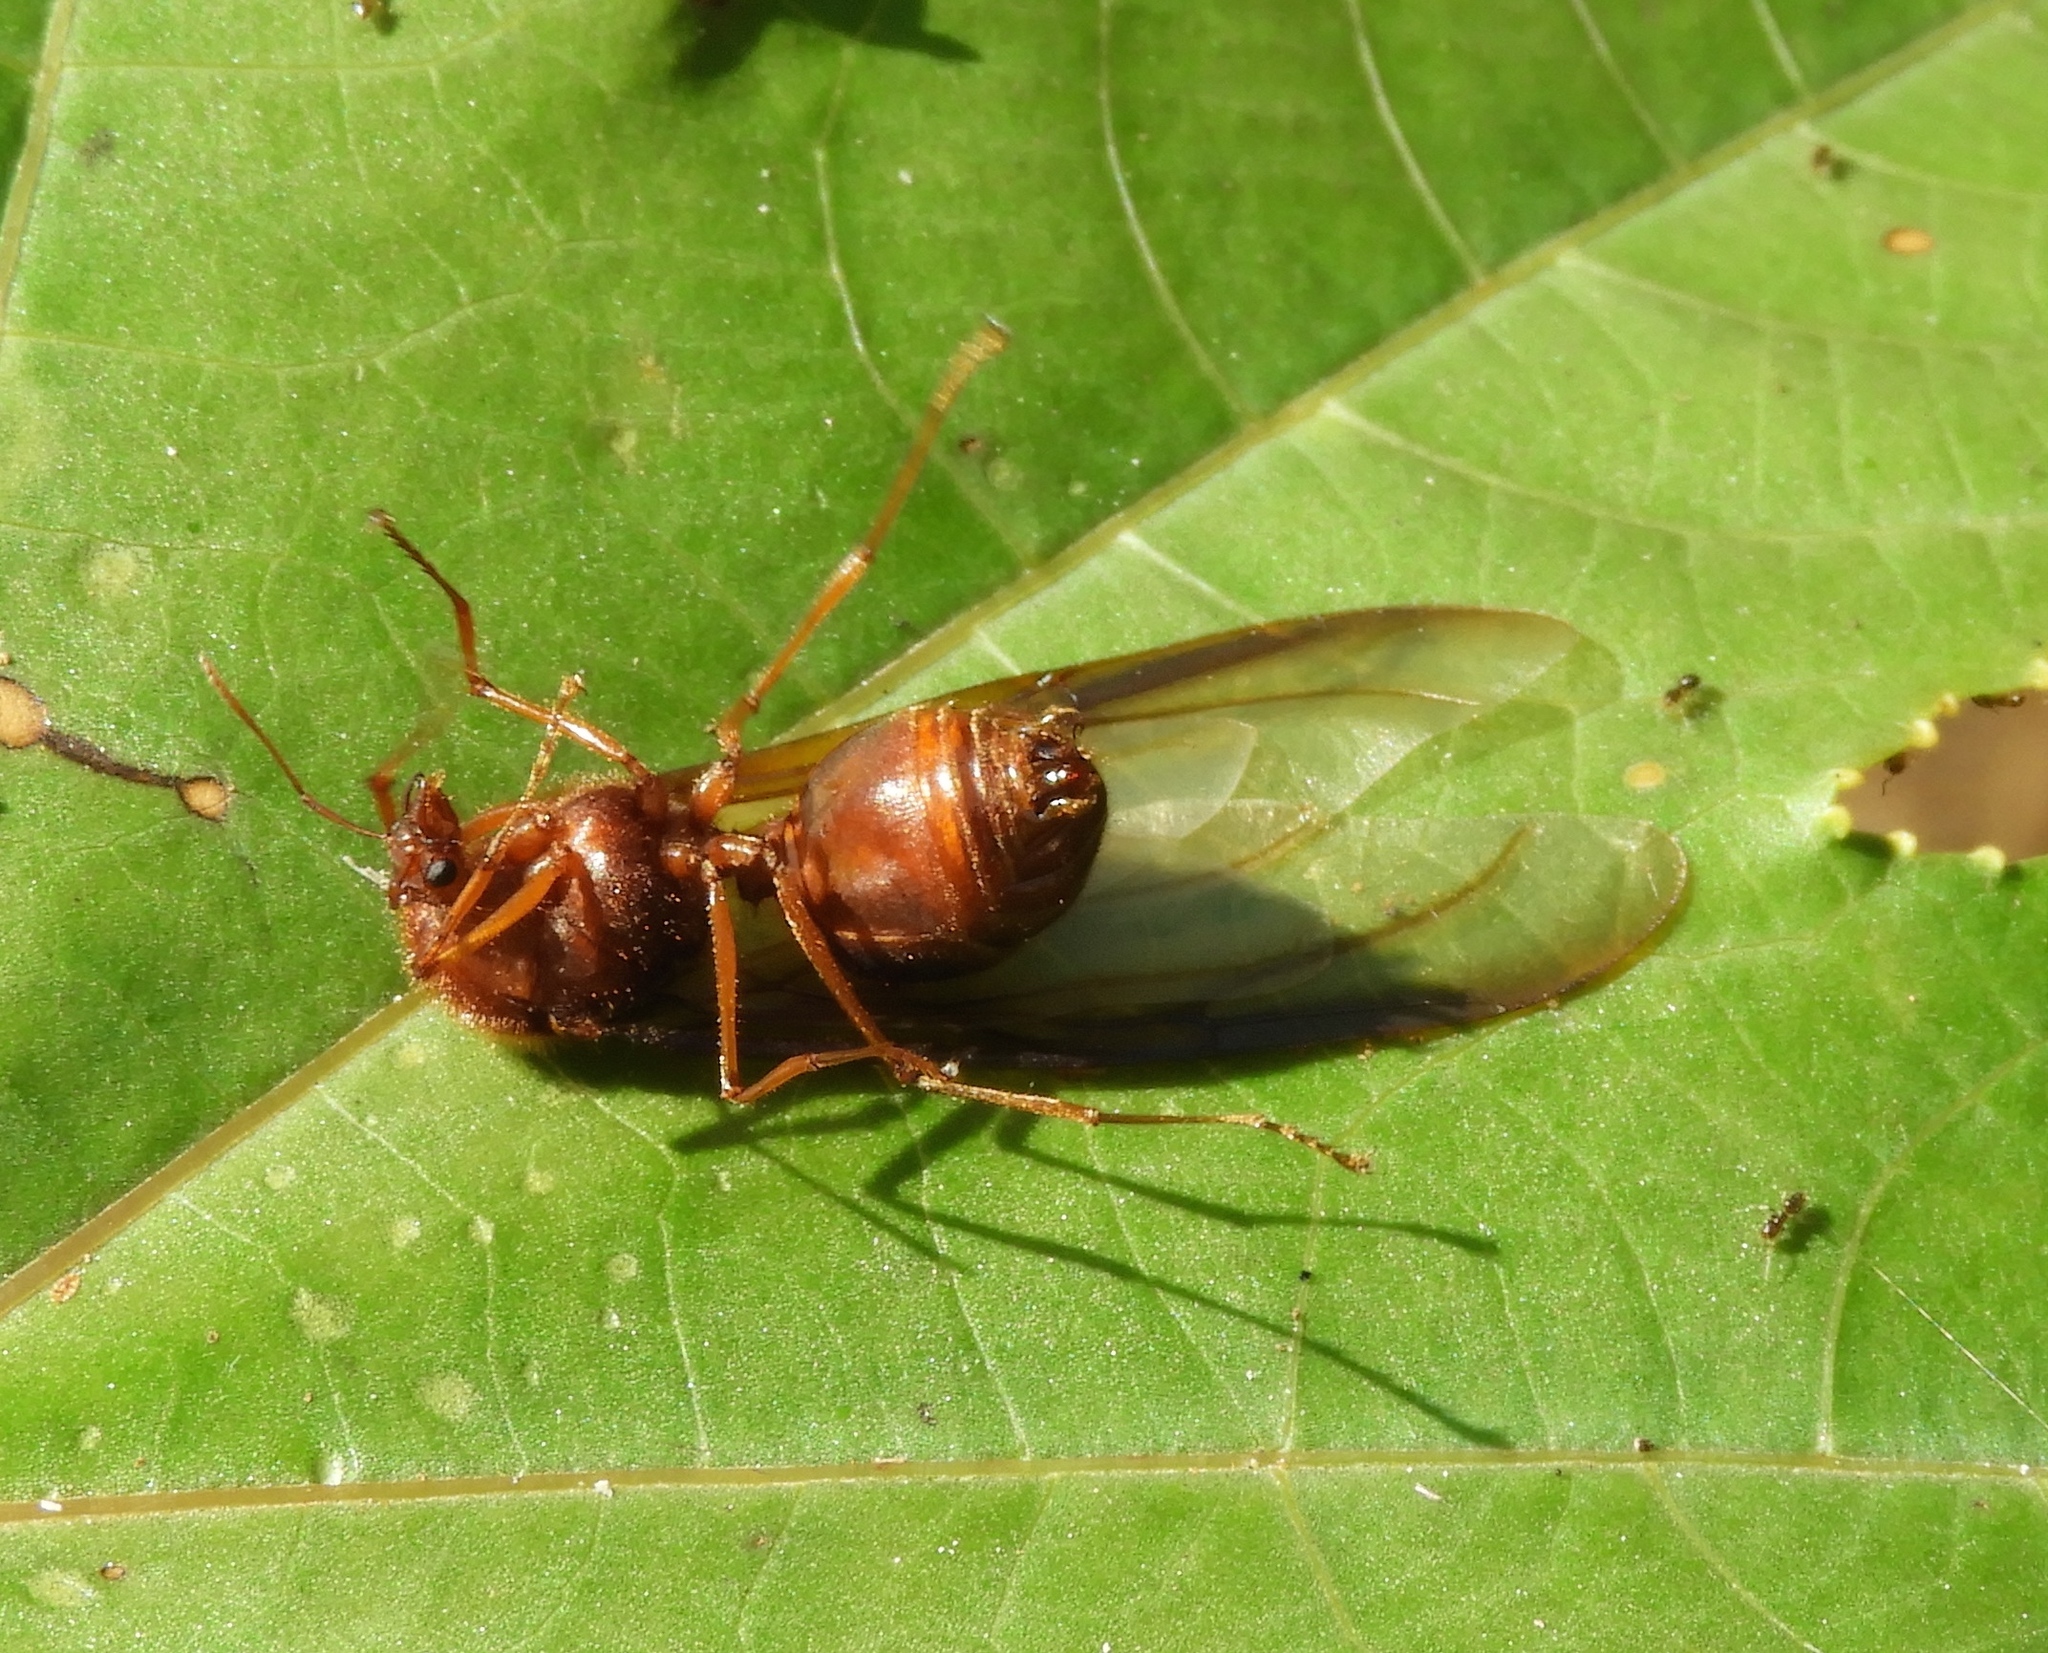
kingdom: Animalia
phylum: Arthropoda
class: Insecta
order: Hymenoptera
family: Formicidae
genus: Atta
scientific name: Atta mexicana
